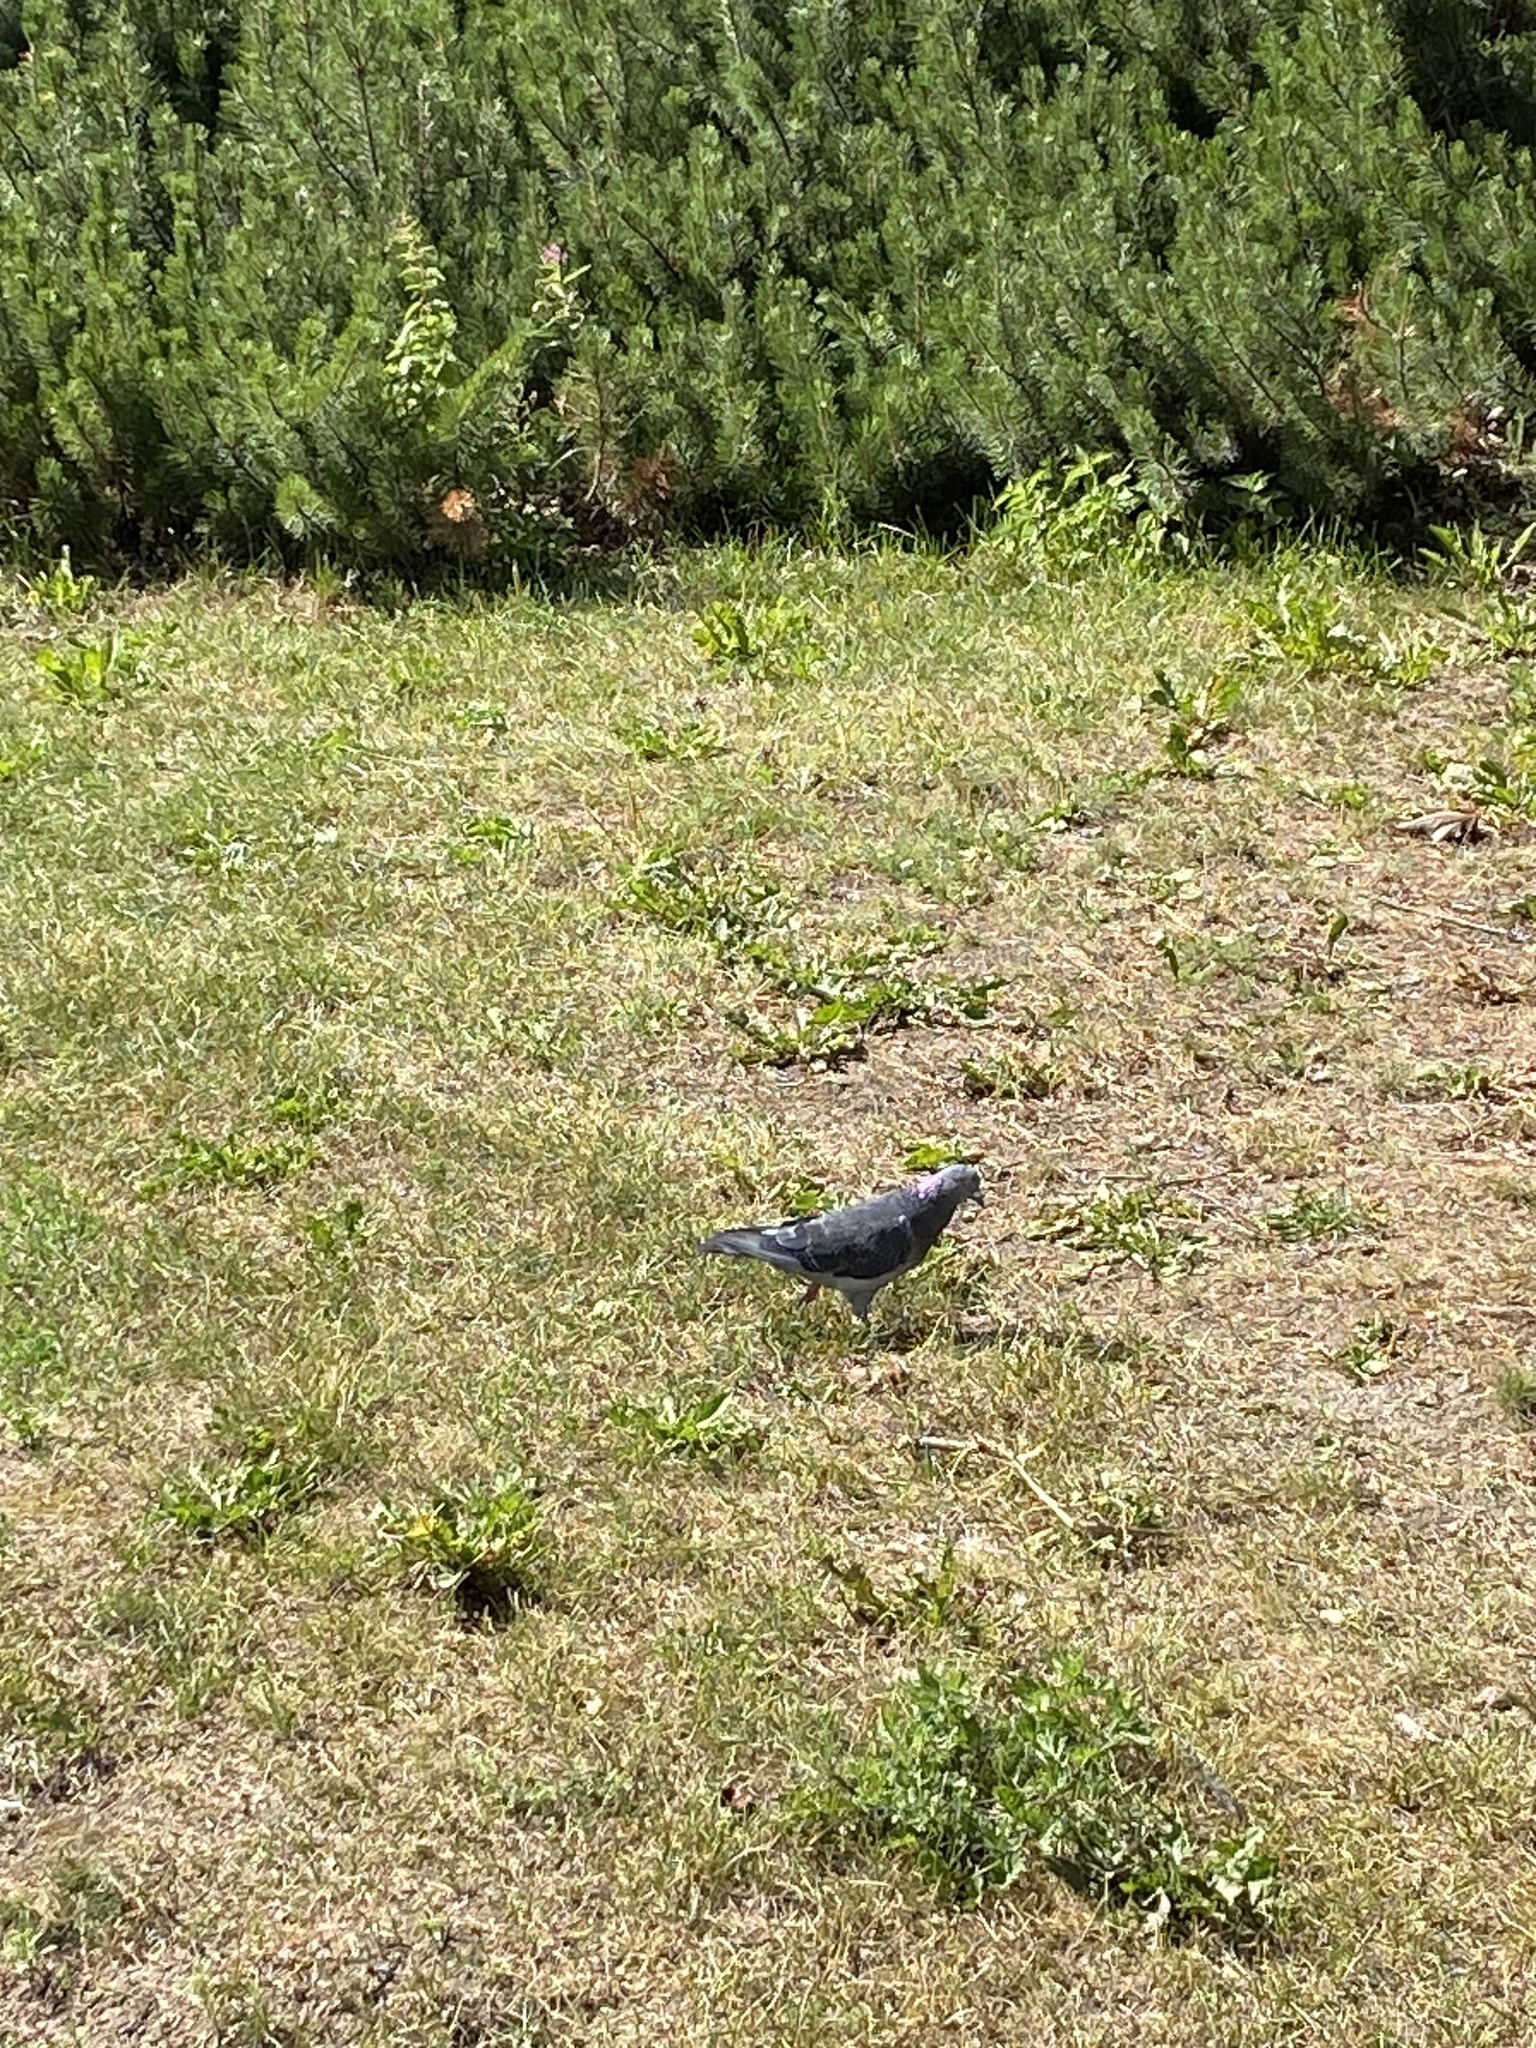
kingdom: Animalia
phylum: Chordata
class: Aves
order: Columbiformes
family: Columbidae
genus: Columba
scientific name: Columba livia
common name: Rock pigeon
